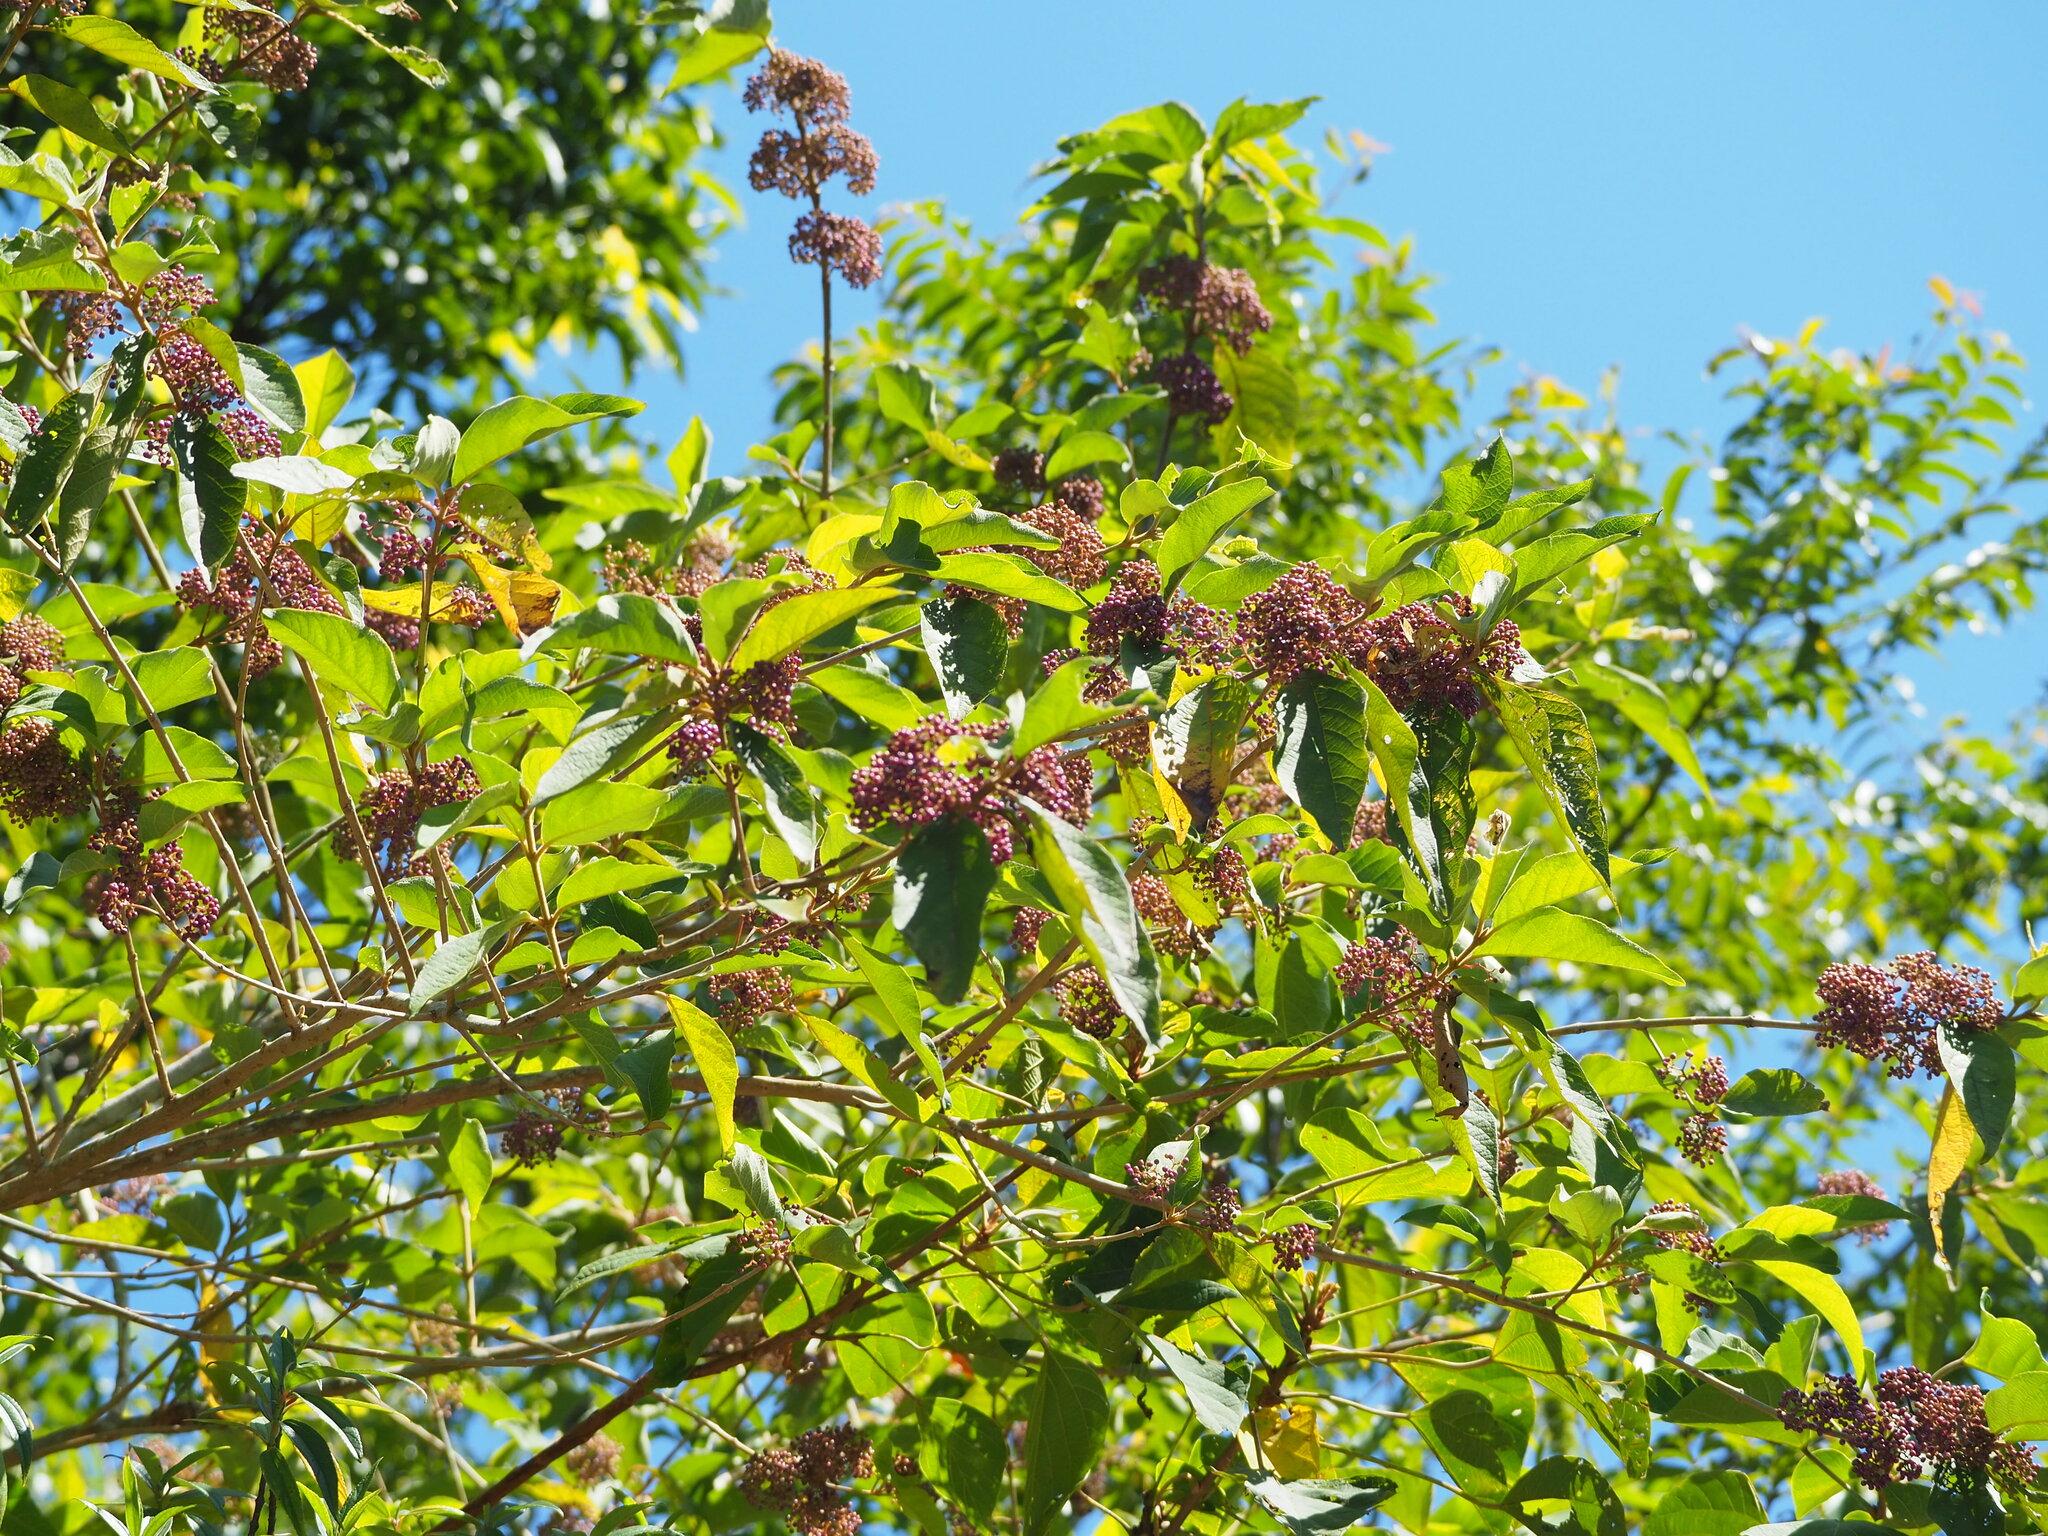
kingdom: Plantae
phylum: Tracheophyta
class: Magnoliopsida
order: Lamiales
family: Lamiaceae
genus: Callicarpa
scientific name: Callicarpa pedunculata
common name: Velvetleaf
